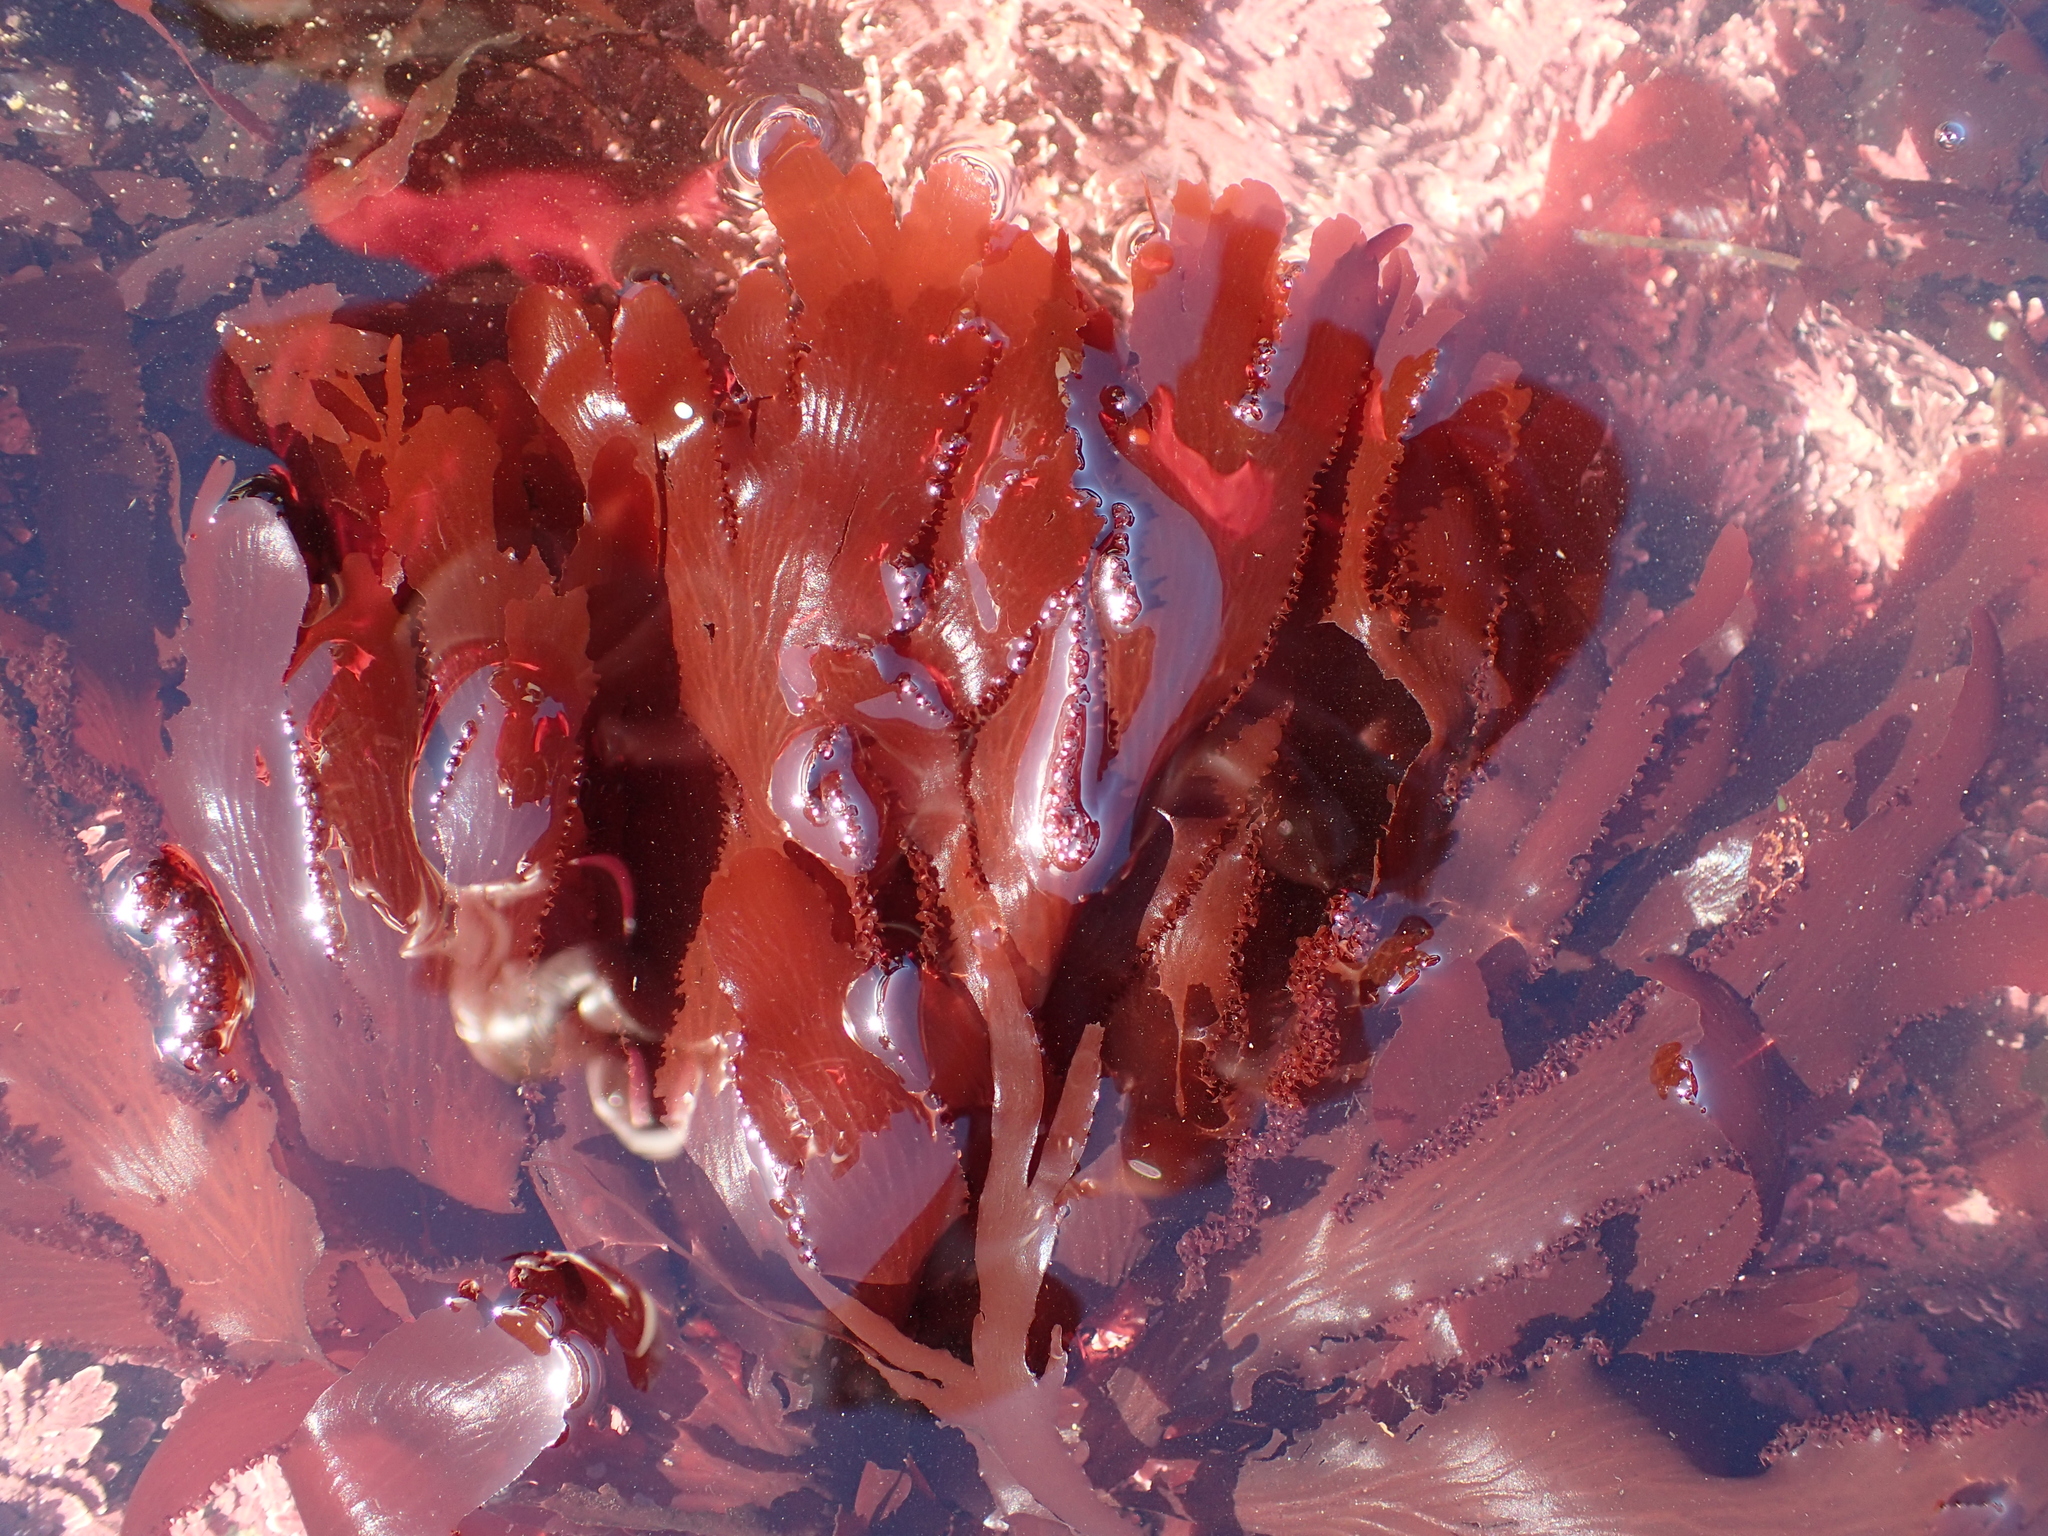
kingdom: Plantae
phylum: Rhodophyta
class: Florideophyceae
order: Ceramiales
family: Delesseriaceae
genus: Cryptopleura
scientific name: Cryptopleura ruprechtiana
